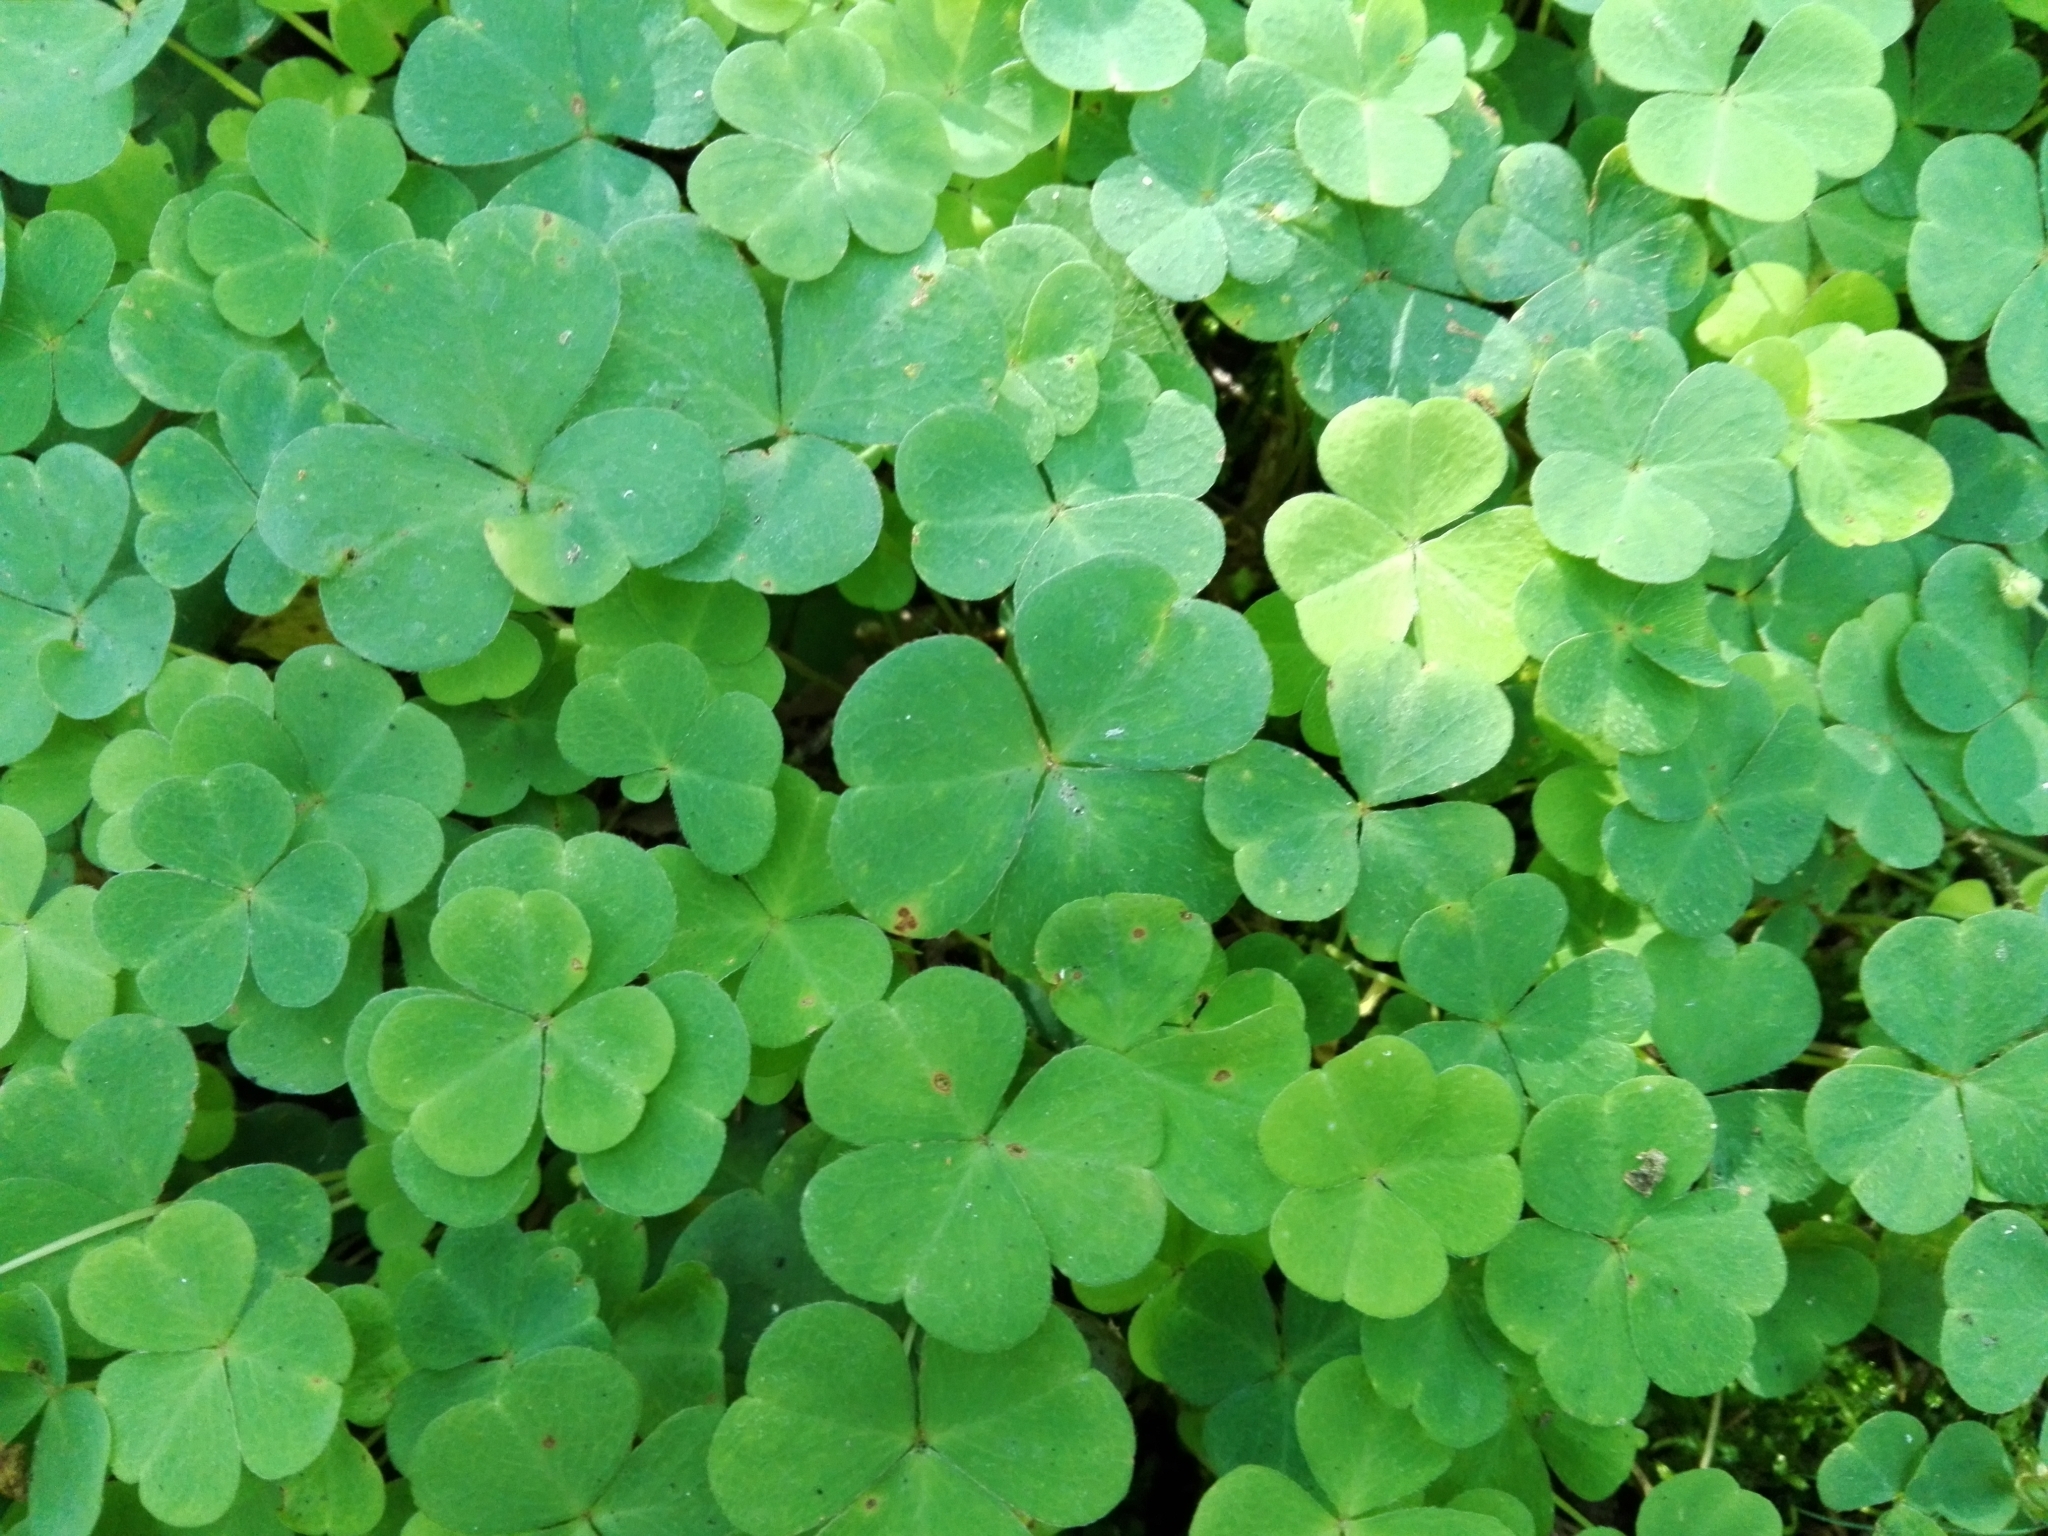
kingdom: Plantae
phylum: Tracheophyta
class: Magnoliopsida
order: Oxalidales
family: Oxalidaceae
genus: Oxalis
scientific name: Oxalis acetosella
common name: Wood-sorrel
